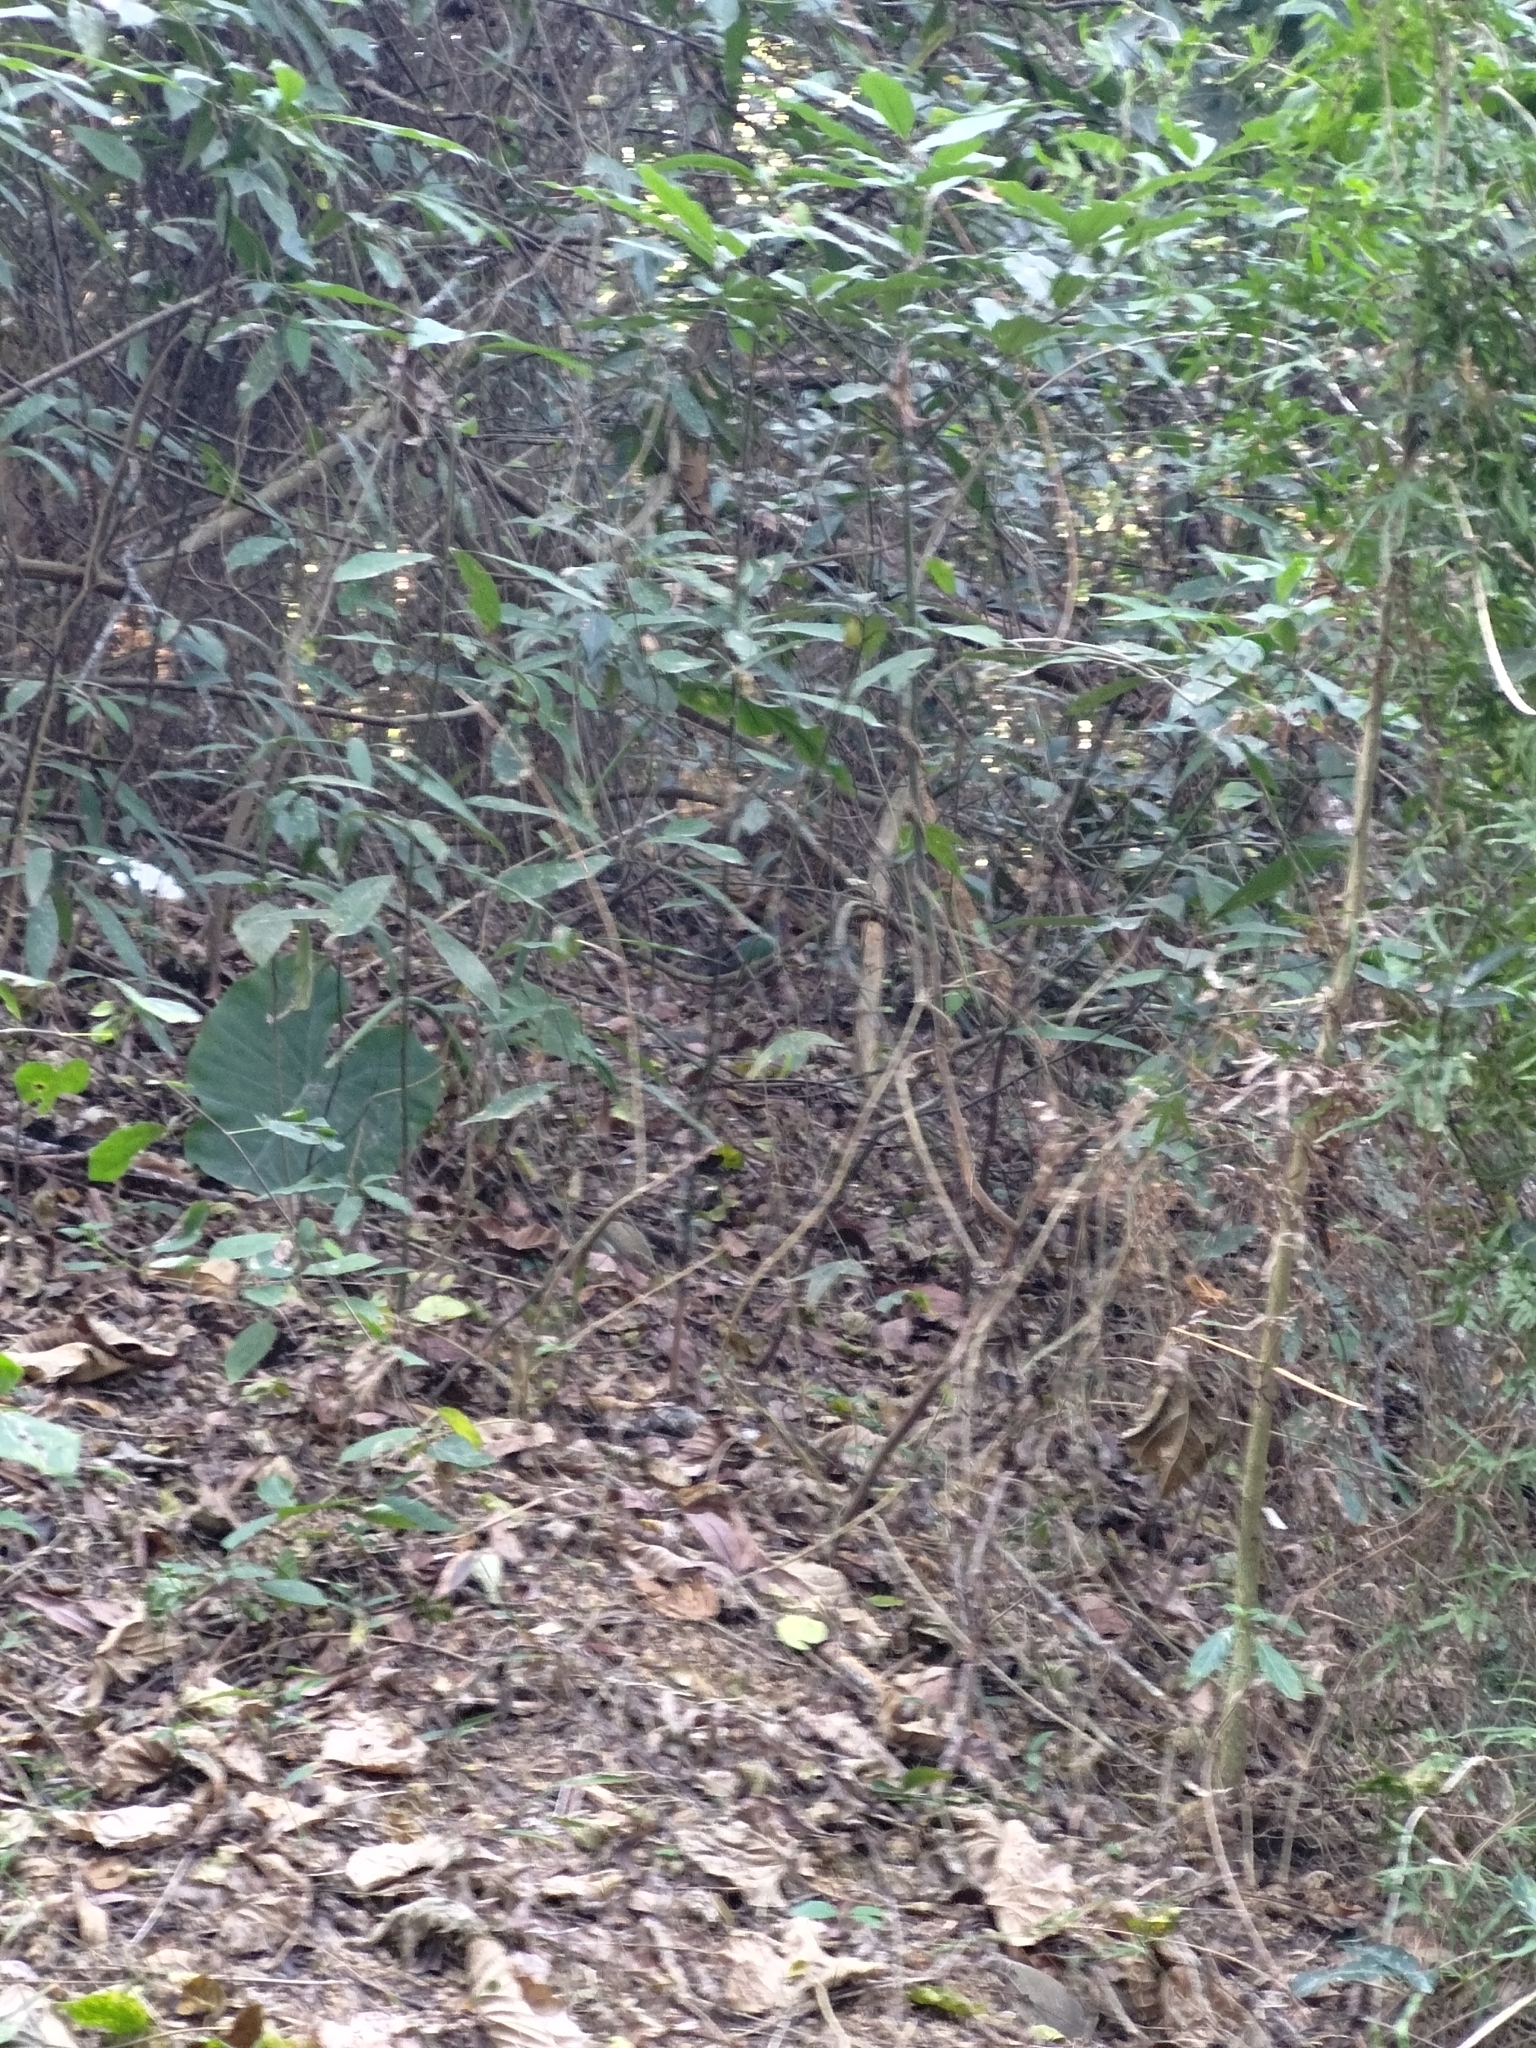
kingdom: Animalia
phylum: Chordata
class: Aves
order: Columbiformes
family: Columbidae
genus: Chalcophaps
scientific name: Chalcophaps indica
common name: Common emerald dove
